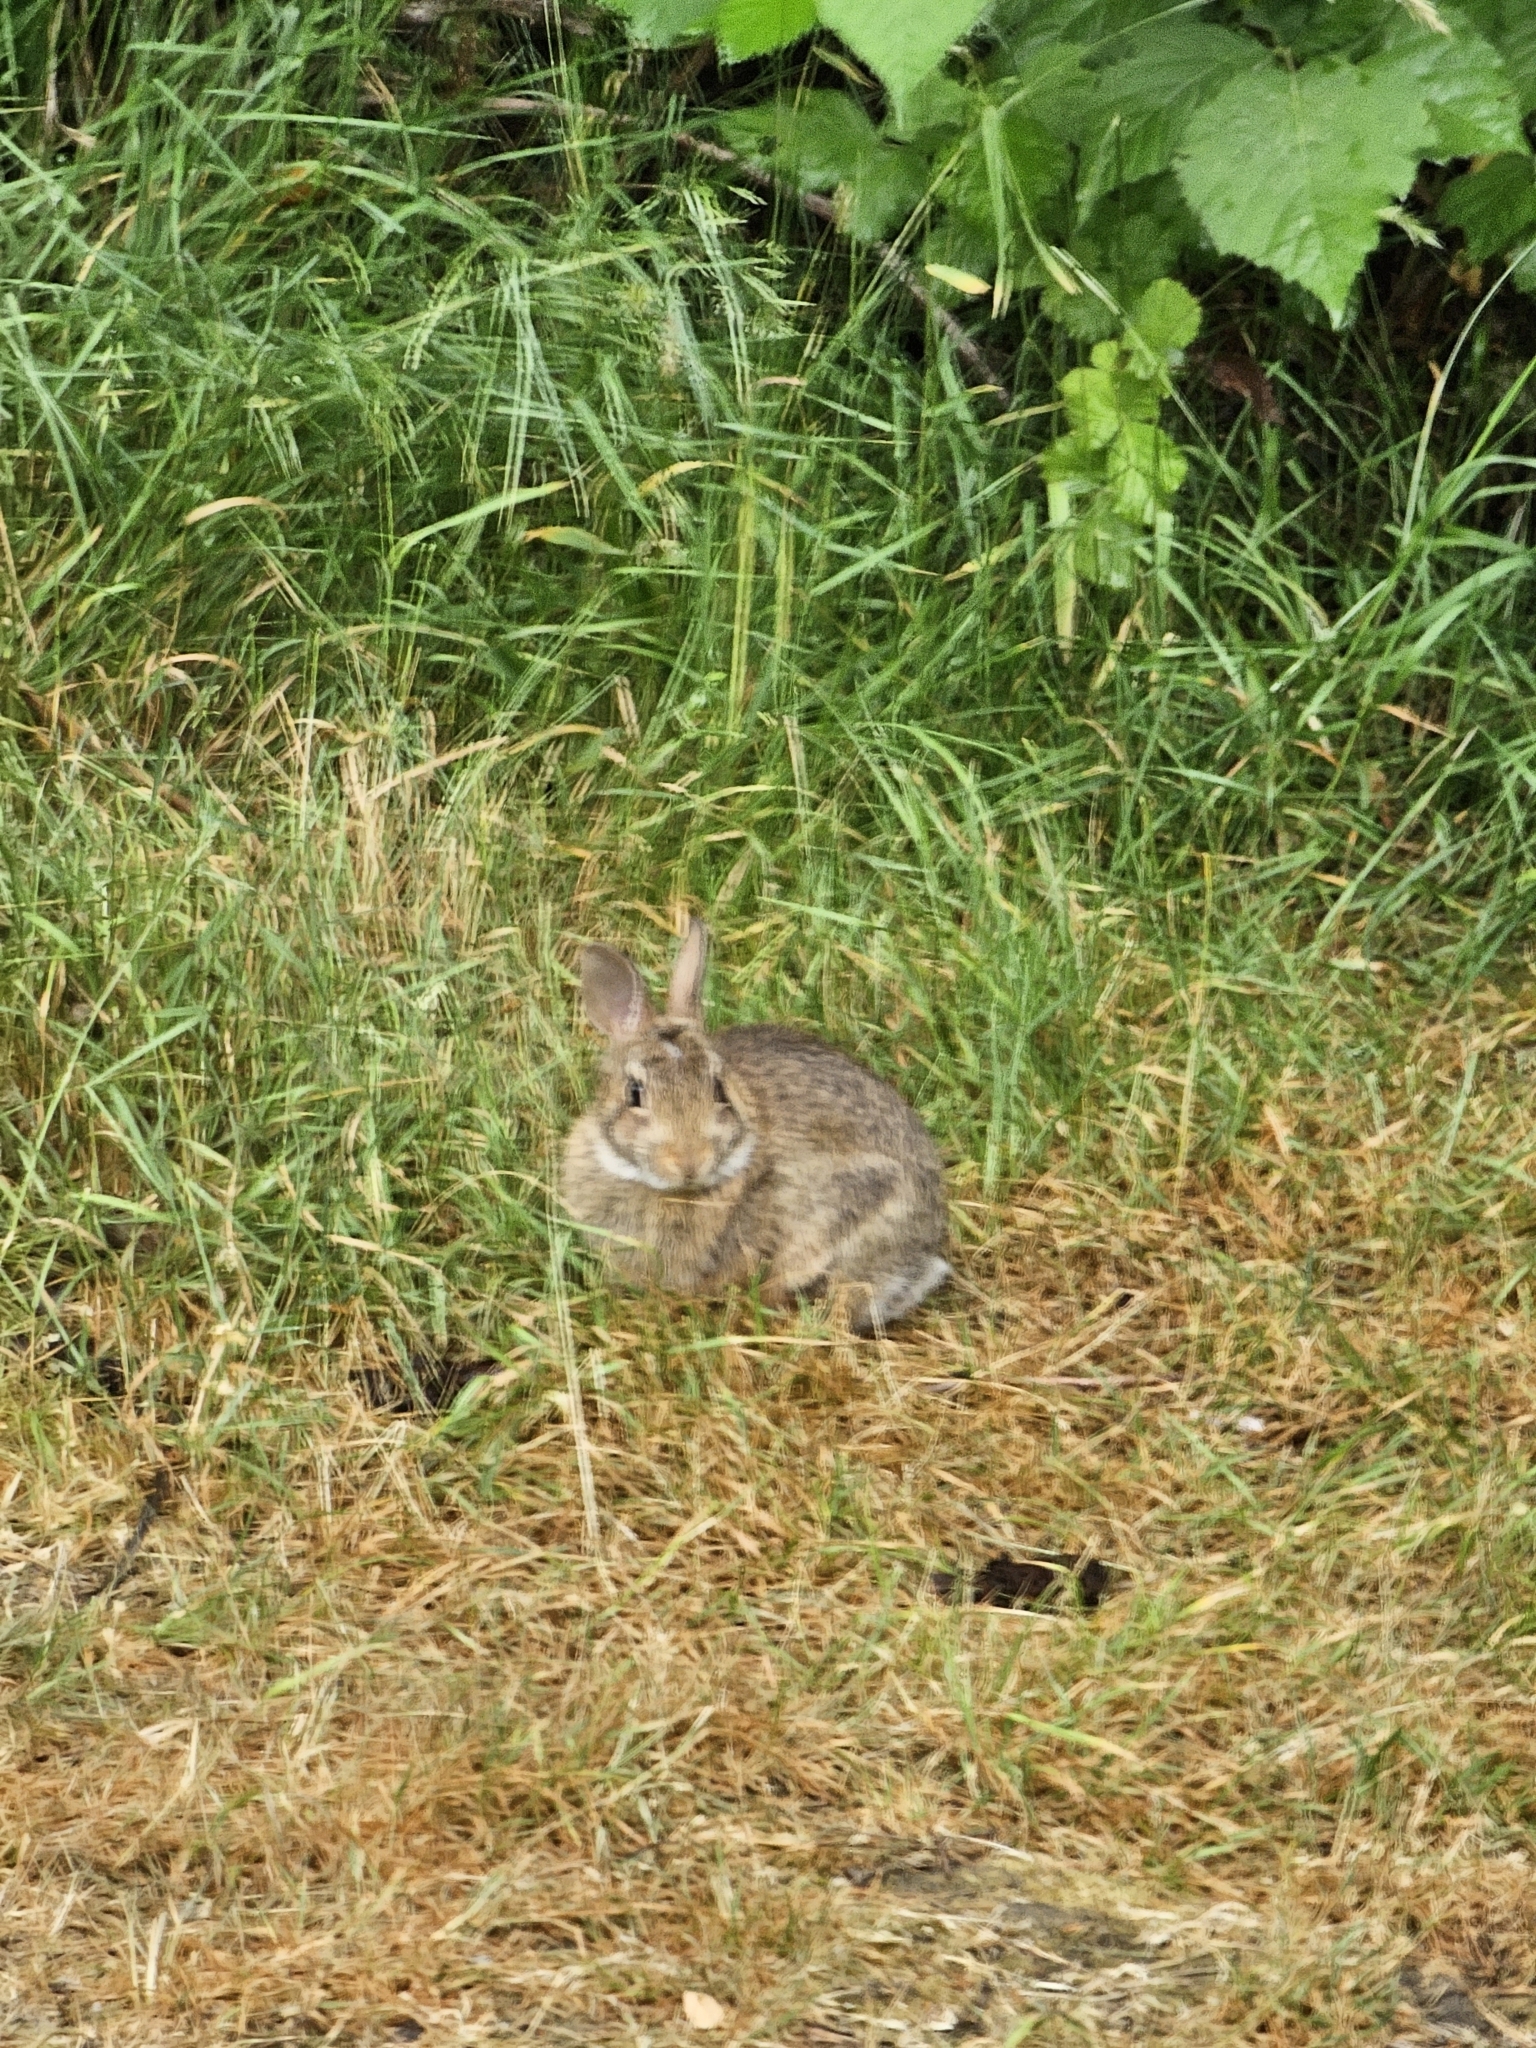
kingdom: Animalia
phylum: Chordata
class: Mammalia
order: Lagomorpha
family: Leporidae
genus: Sylvilagus
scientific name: Sylvilagus floridanus
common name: Eastern cottontail
